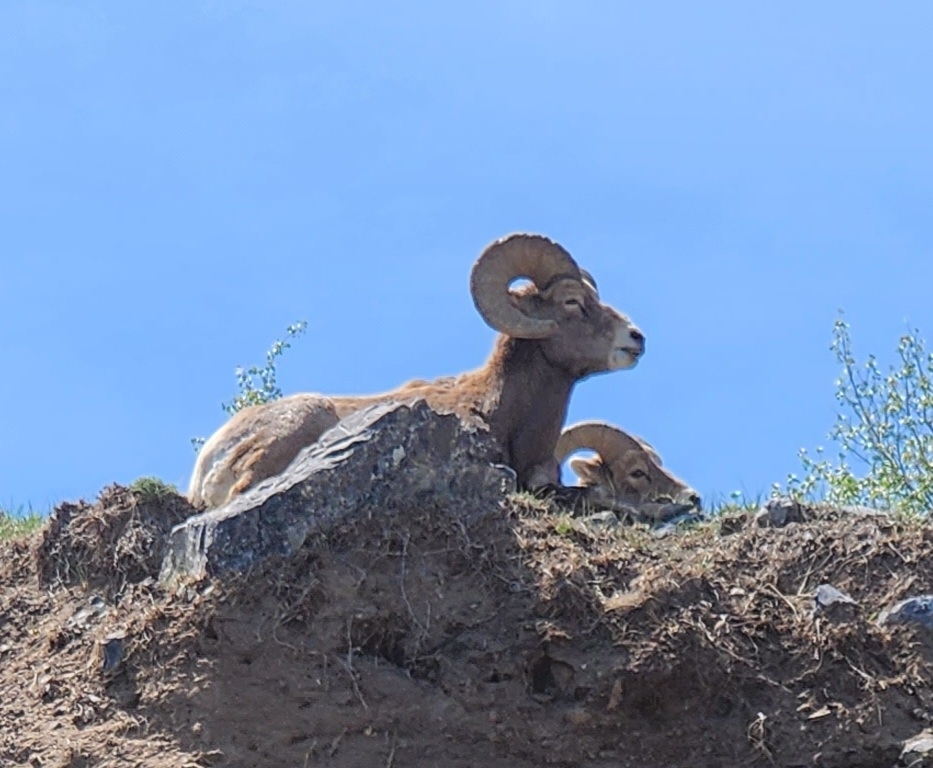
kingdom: Animalia
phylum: Chordata
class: Mammalia
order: Artiodactyla
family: Bovidae
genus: Ovis
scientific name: Ovis canadensis
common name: Bighorn sheep
